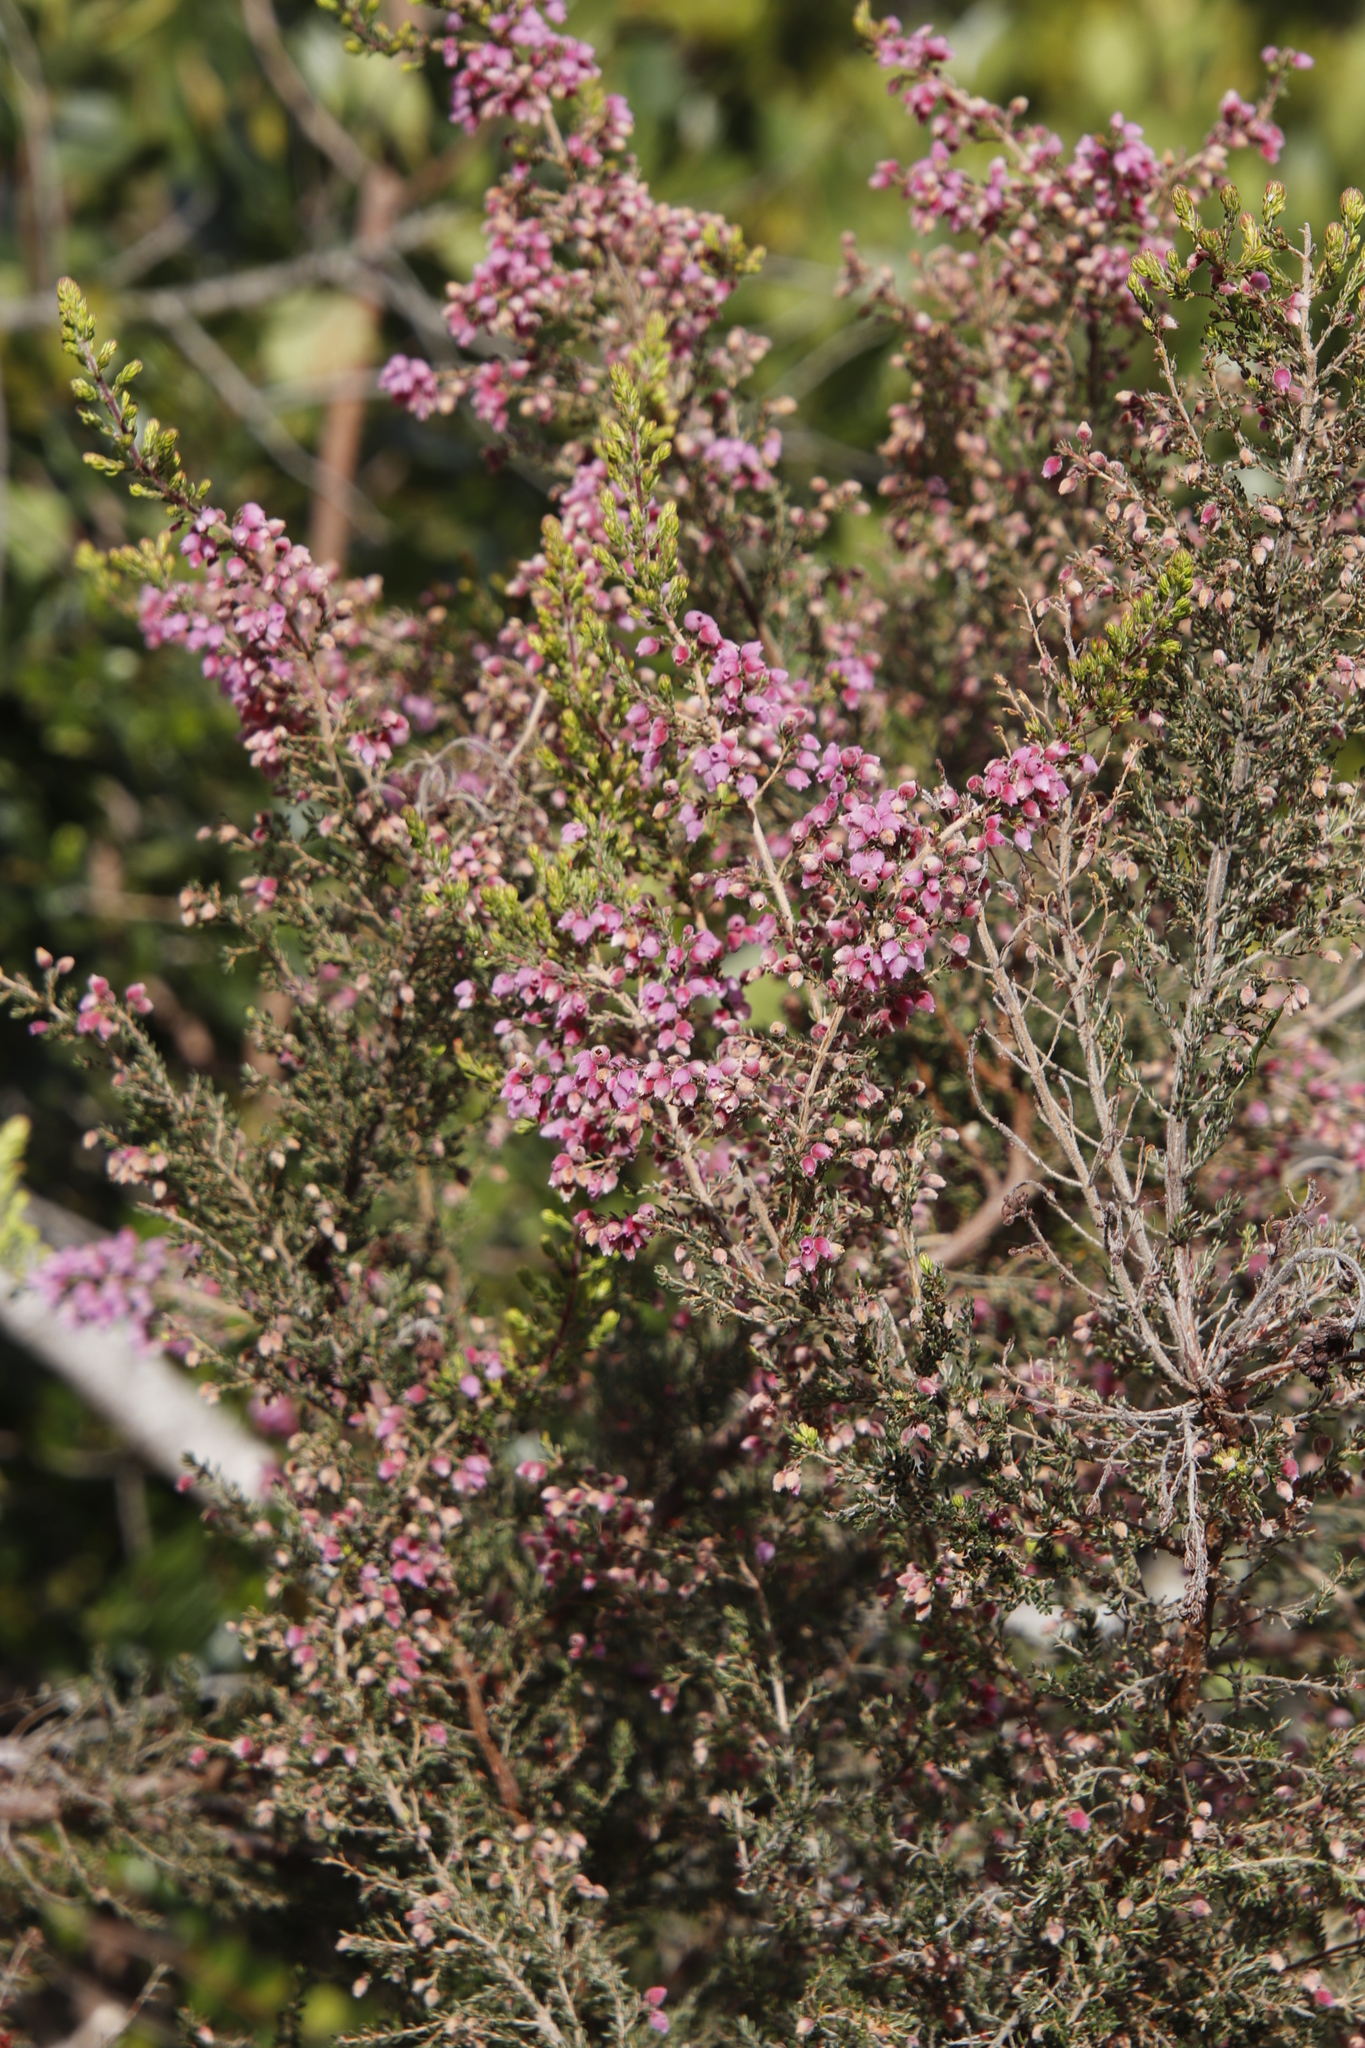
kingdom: Plantae
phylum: Tracheophyta
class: Magnoliopsida
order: Ericales
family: Ericaceae
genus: Erica
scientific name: Erica hirtiflora
